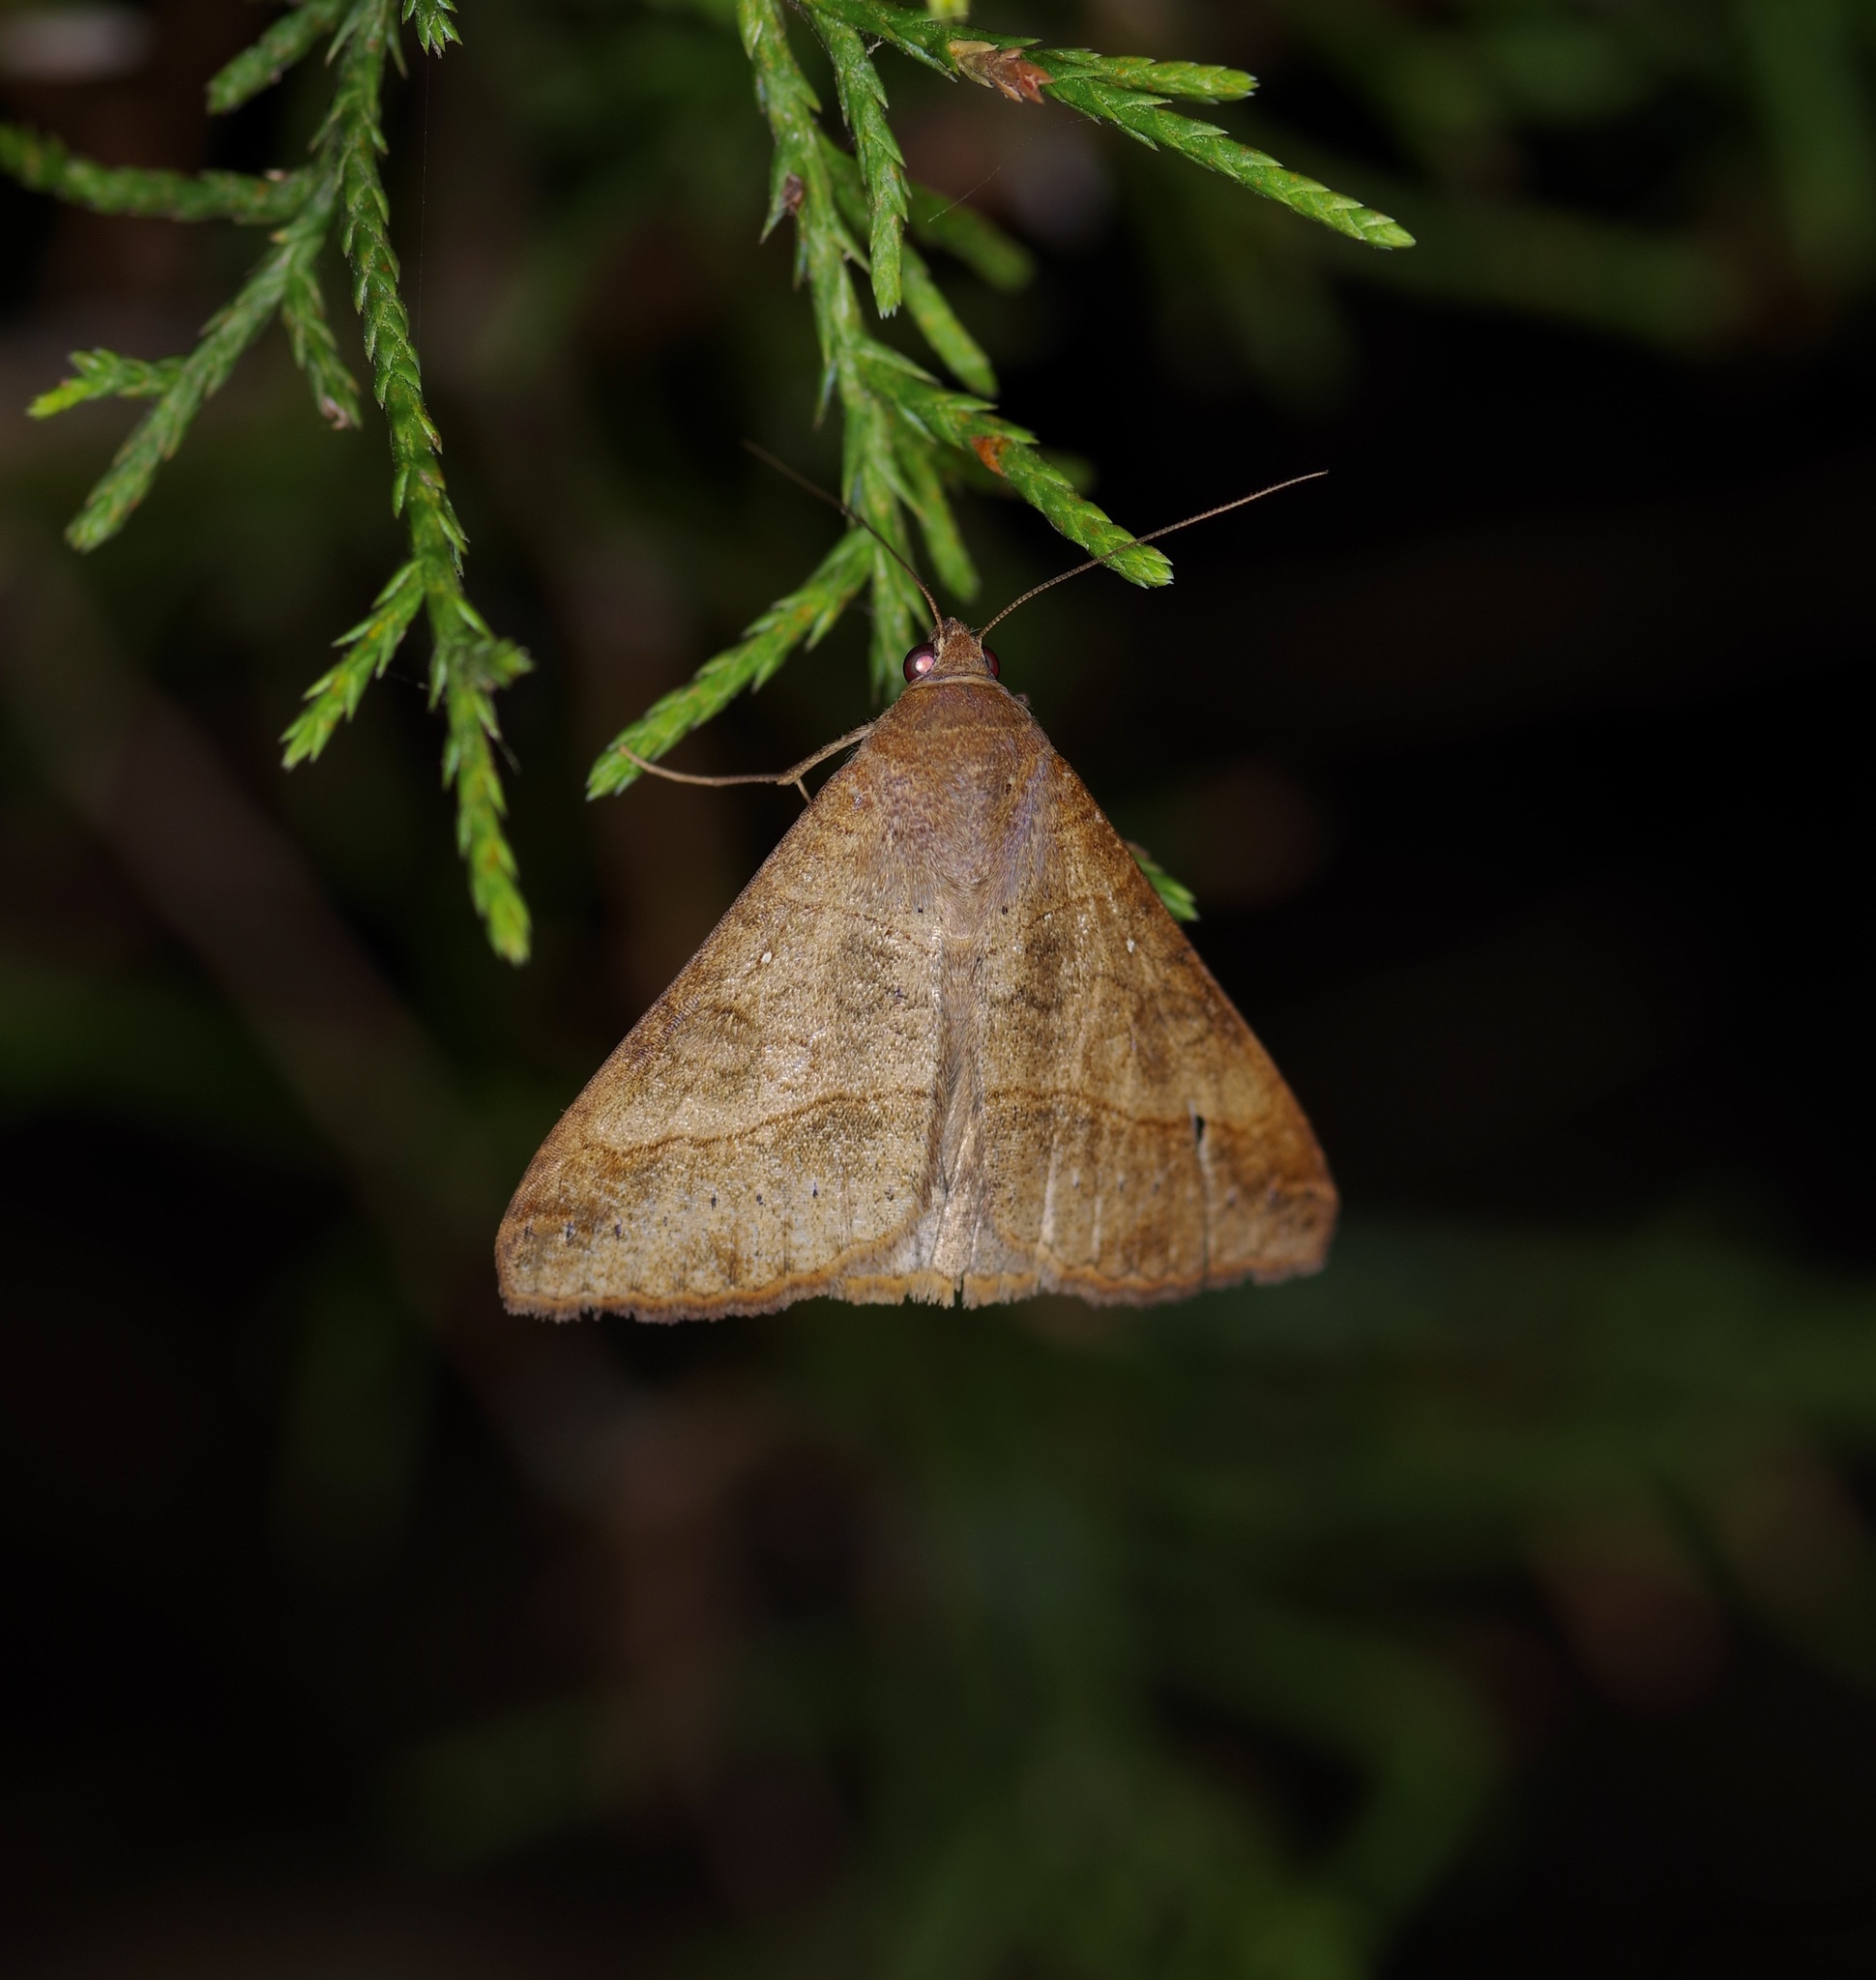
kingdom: Animalia
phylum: Arthropoda
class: Insecta
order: Lepidoptera
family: Erebidae
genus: Mocis
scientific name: Mocis latipes
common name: Striped grass looper
